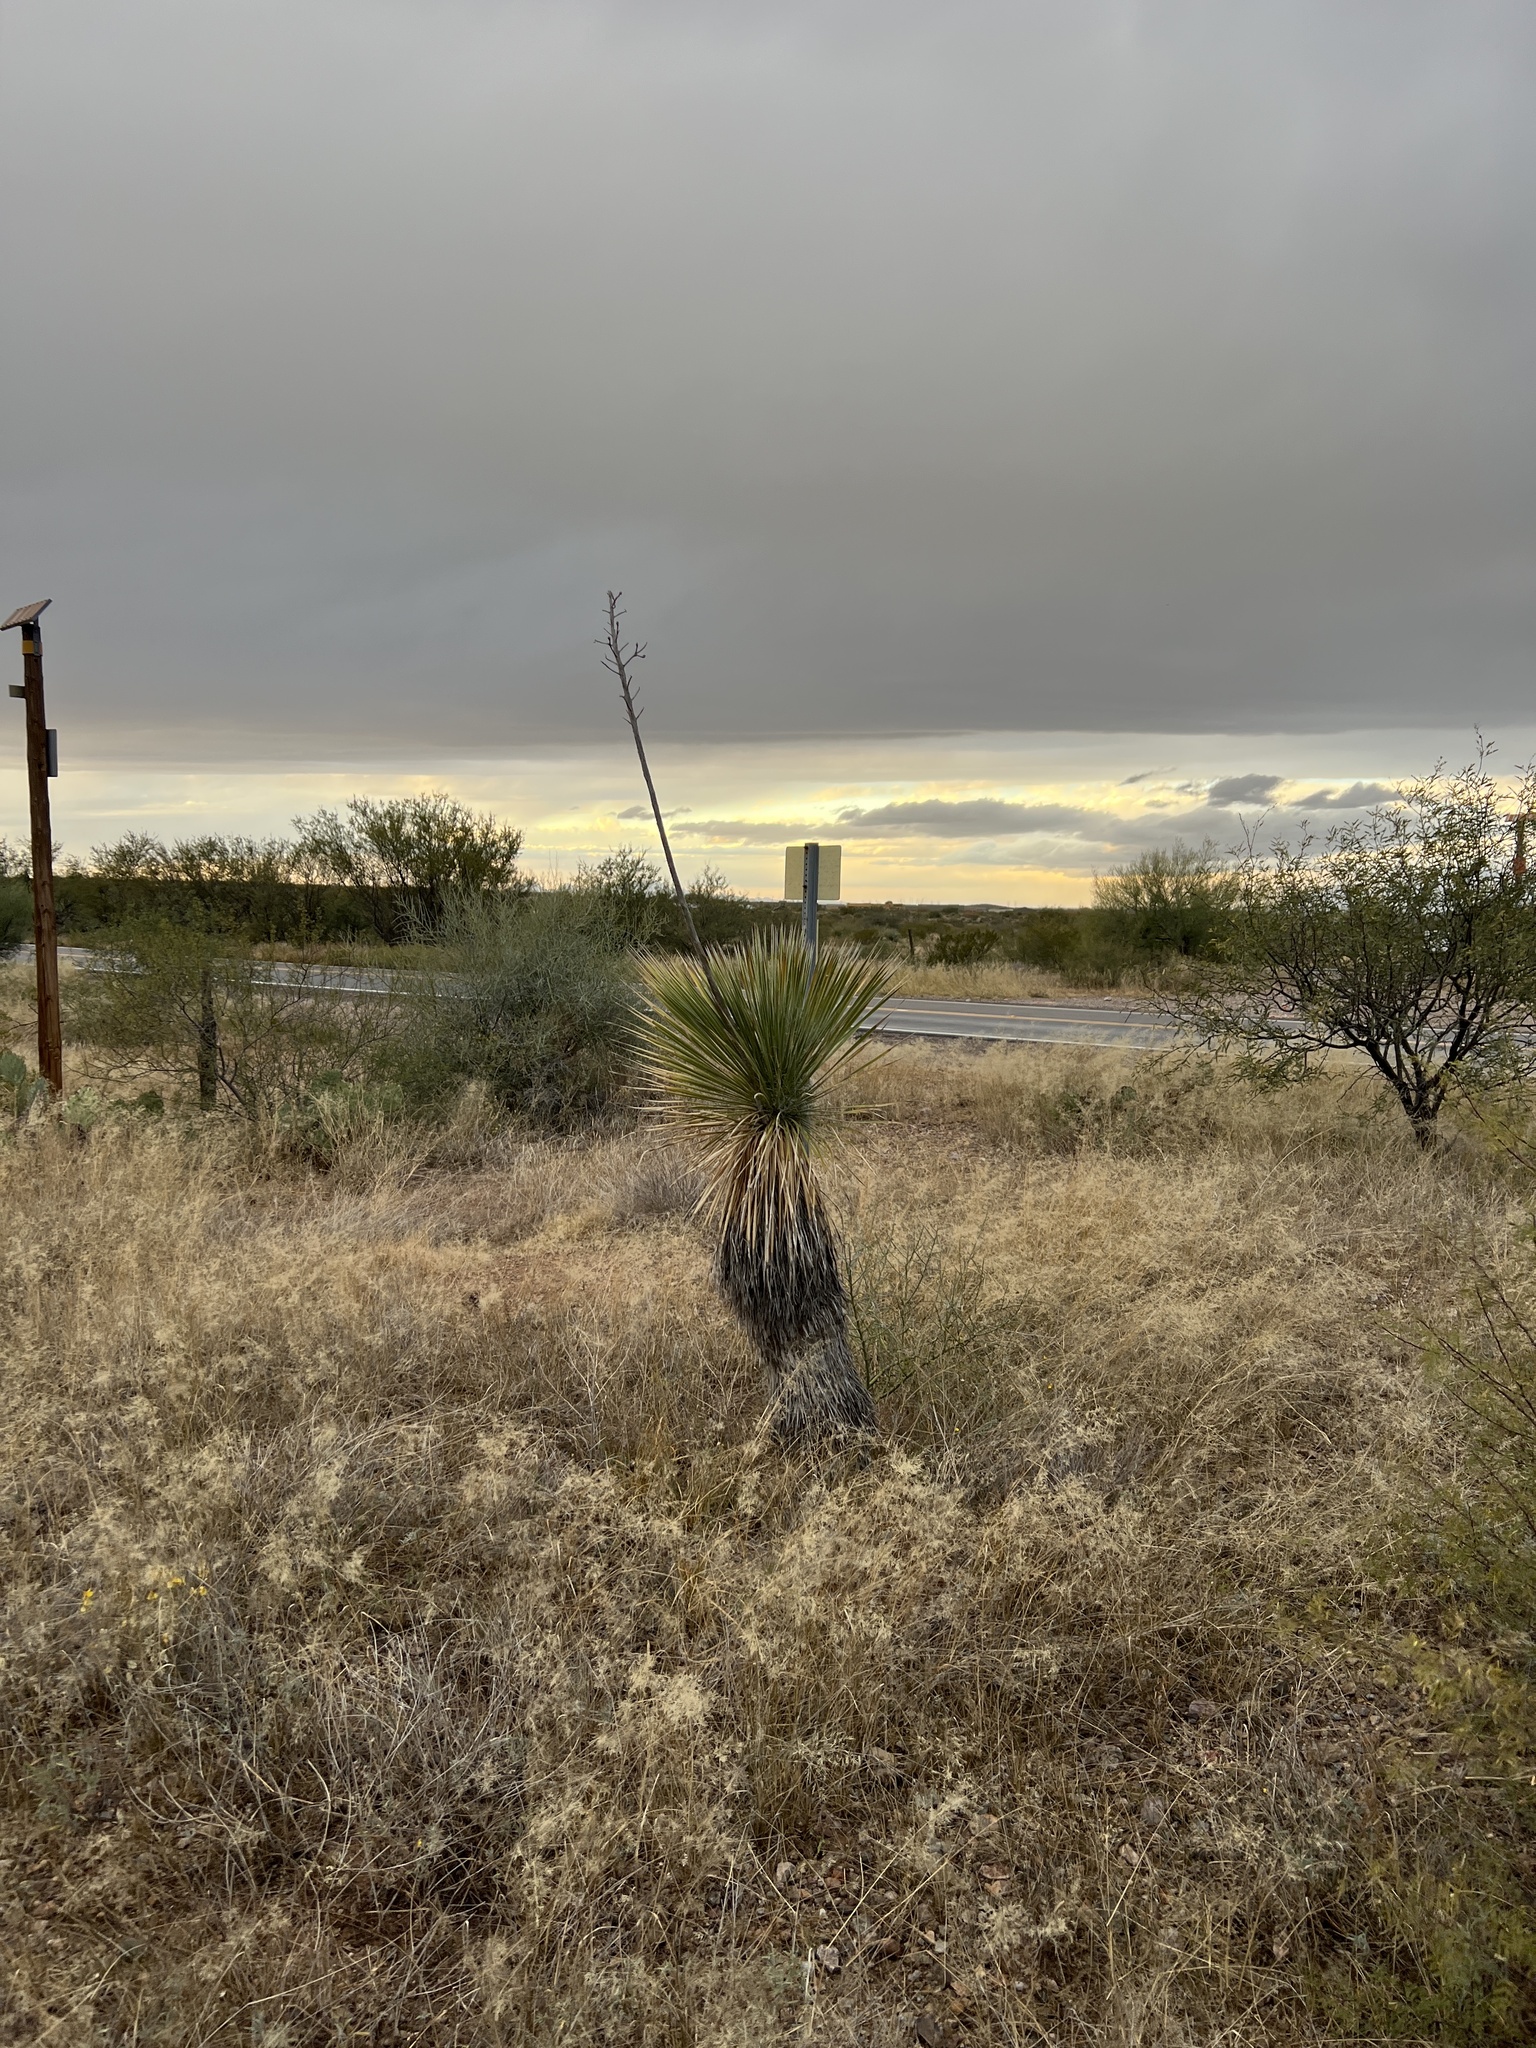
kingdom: Plantae
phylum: Tracheophyta
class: Liliopsida
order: Asparagales
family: Asparagaceae
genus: Yucca
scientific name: Yucca elata
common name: Palmella
